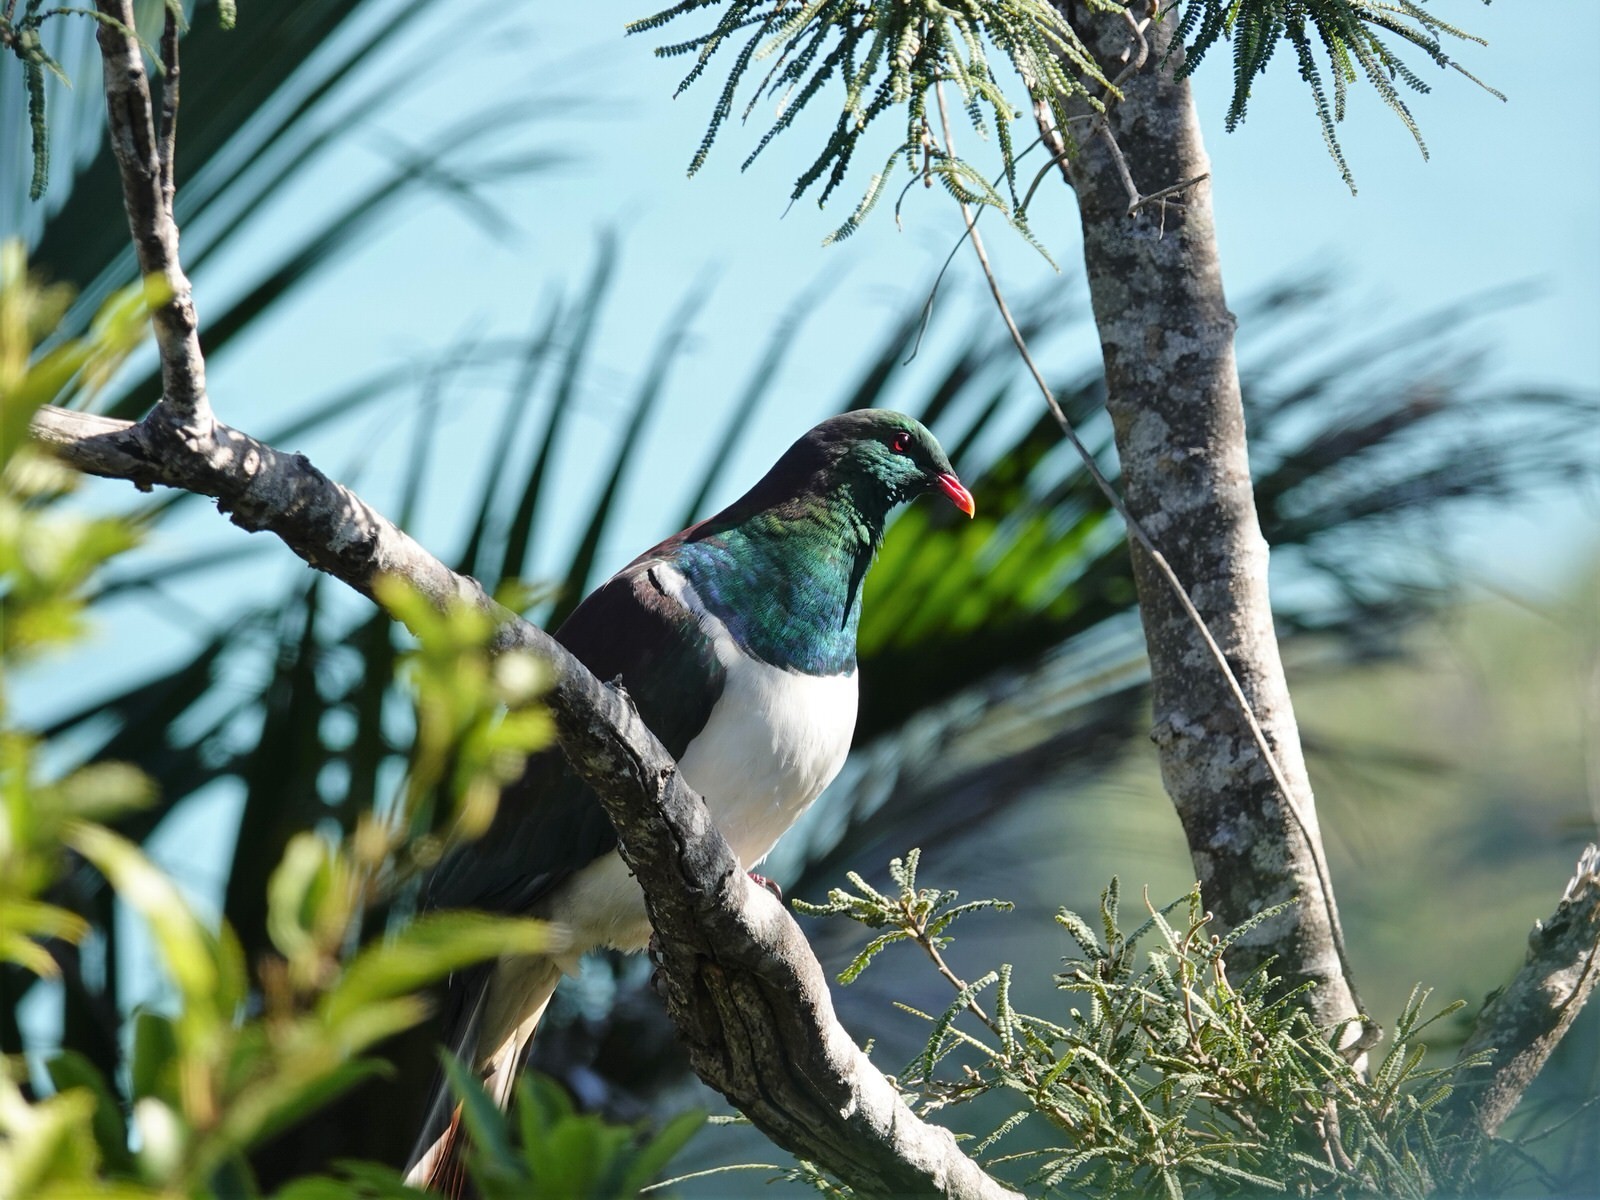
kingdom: Animalia
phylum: Chordata
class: Aves
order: Columbiformes
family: Columbidae
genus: Hemiphaga
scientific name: Hemiphaga novaeseelandiae
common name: New zealand pigeon
